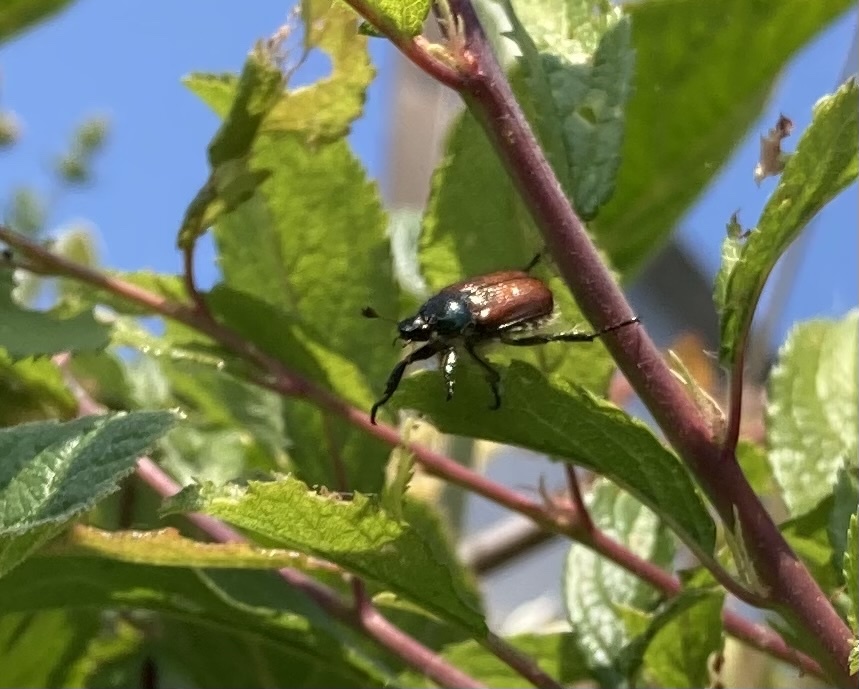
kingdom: Animalia
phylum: Arthropoda
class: Insecta
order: Coleoptera
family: Scarabaeidae
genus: Phyllopertha
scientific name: Phyllopertha horticola
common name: Garden chafer
